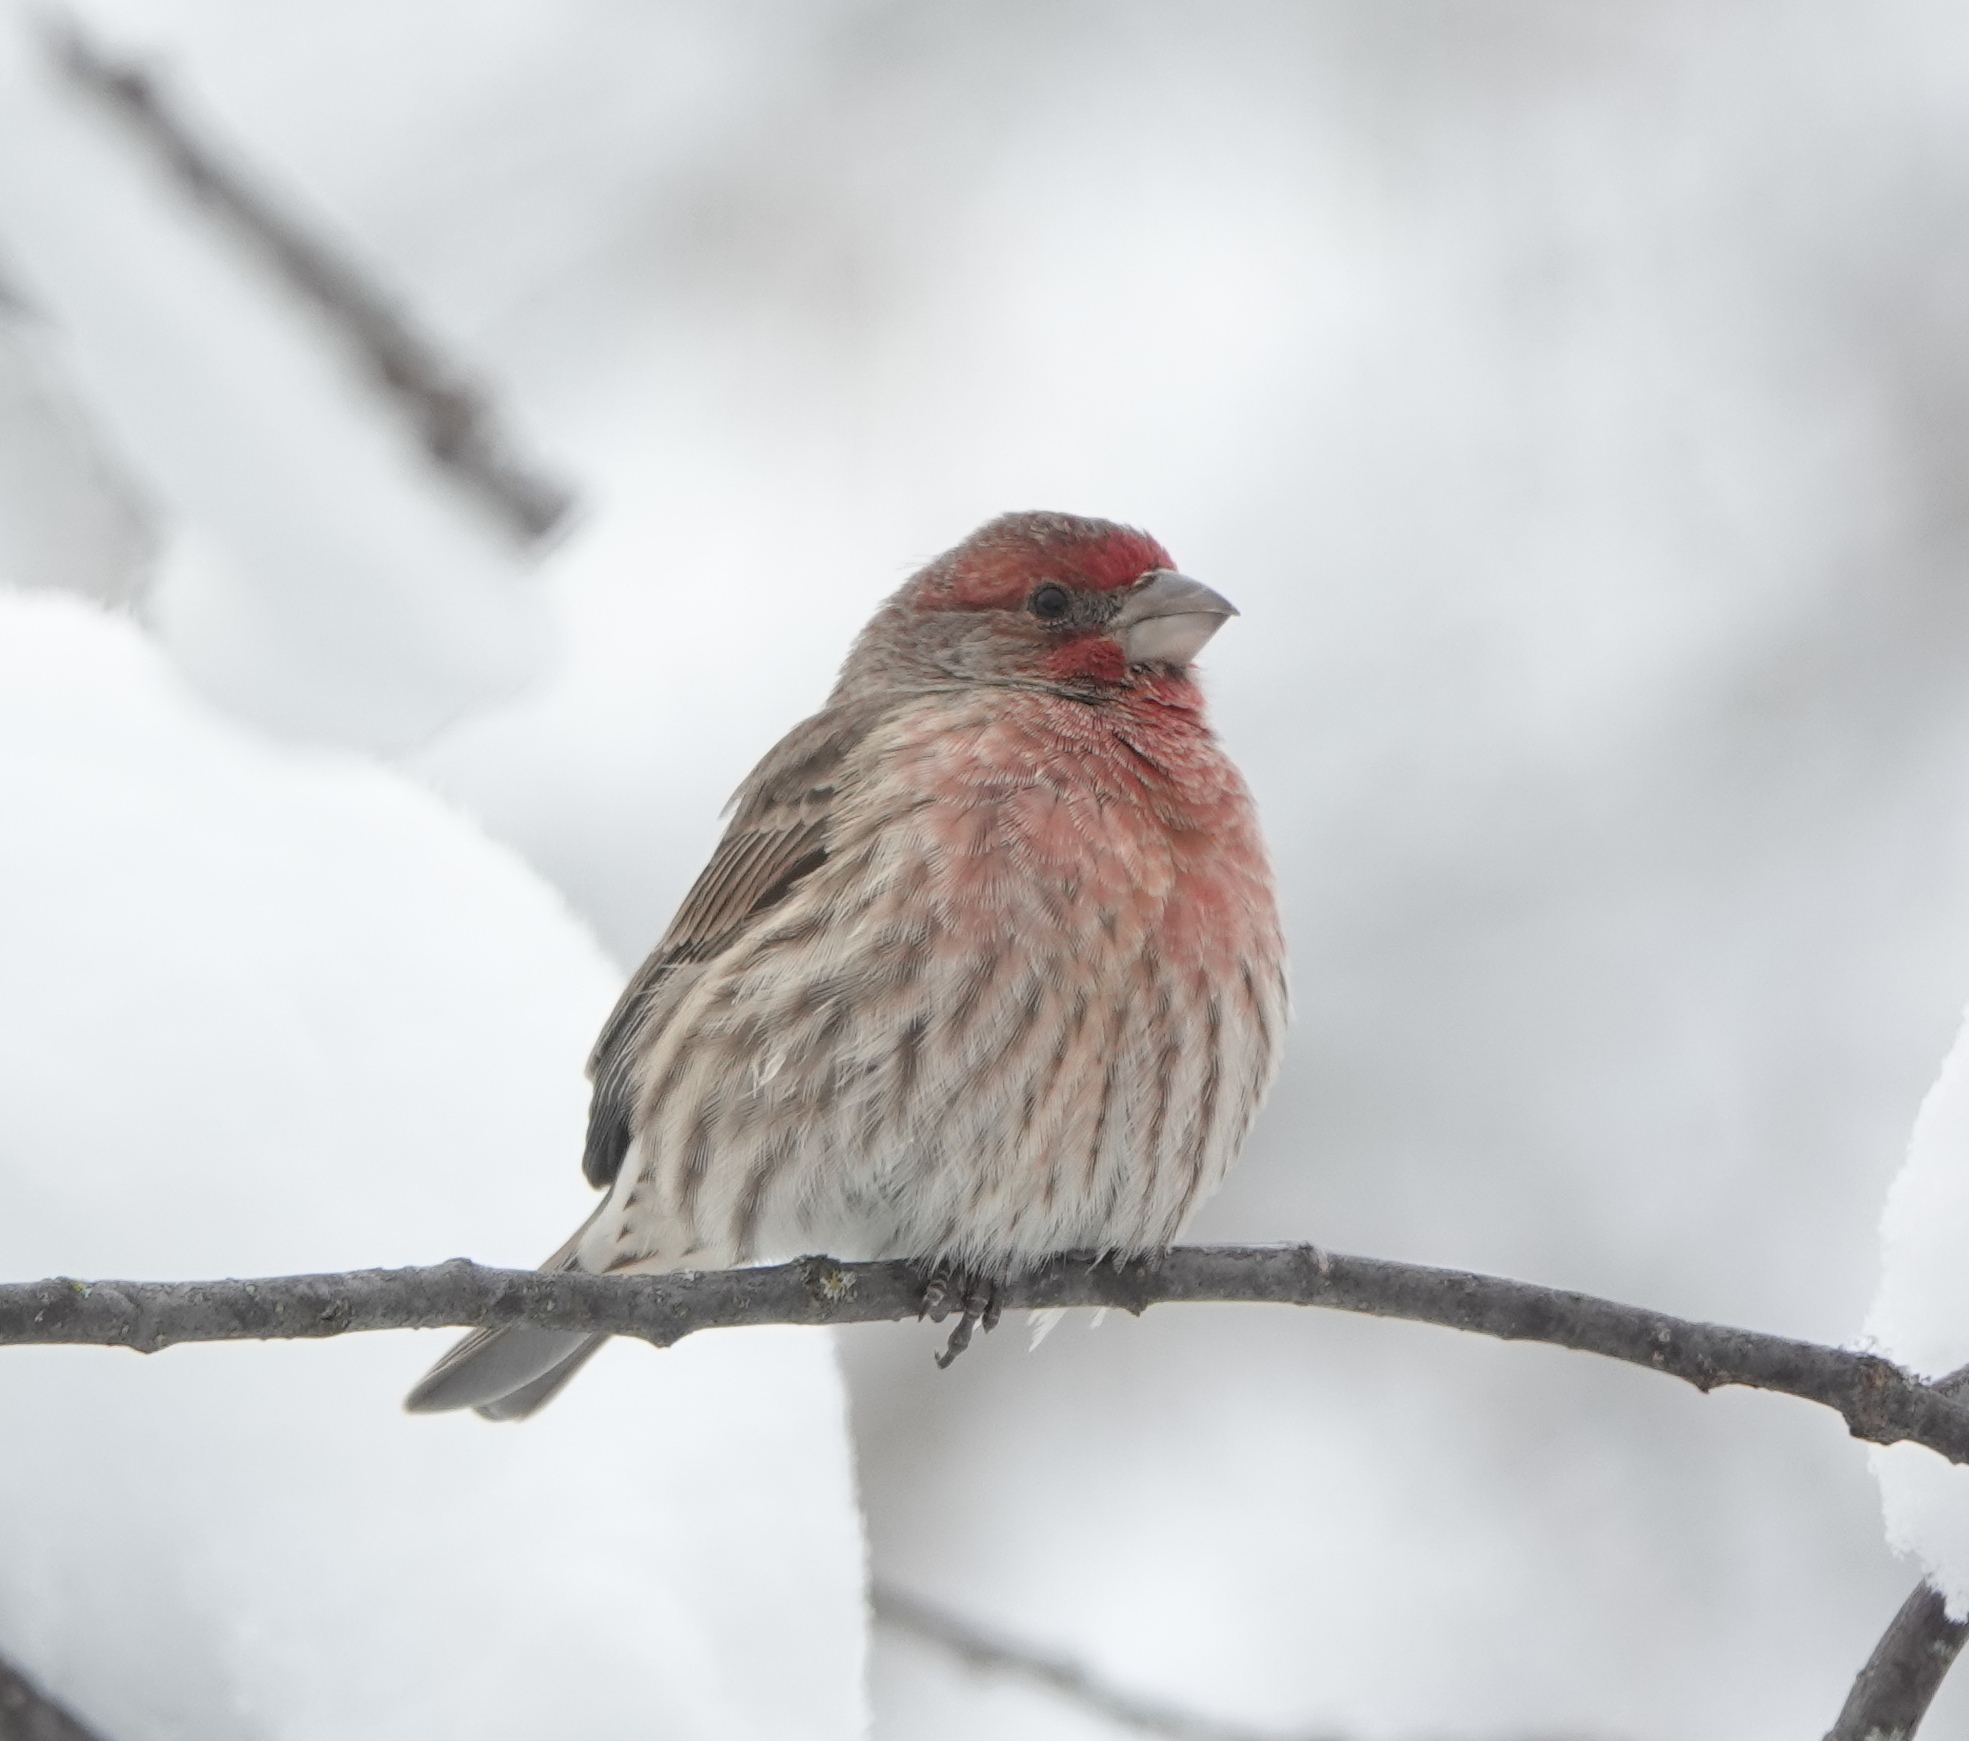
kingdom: Animalia
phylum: Chordata
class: Aves
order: Passeriformes
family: Fringillidae
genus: Haemorhous
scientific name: Haemorhous mexicanus
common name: House finch
